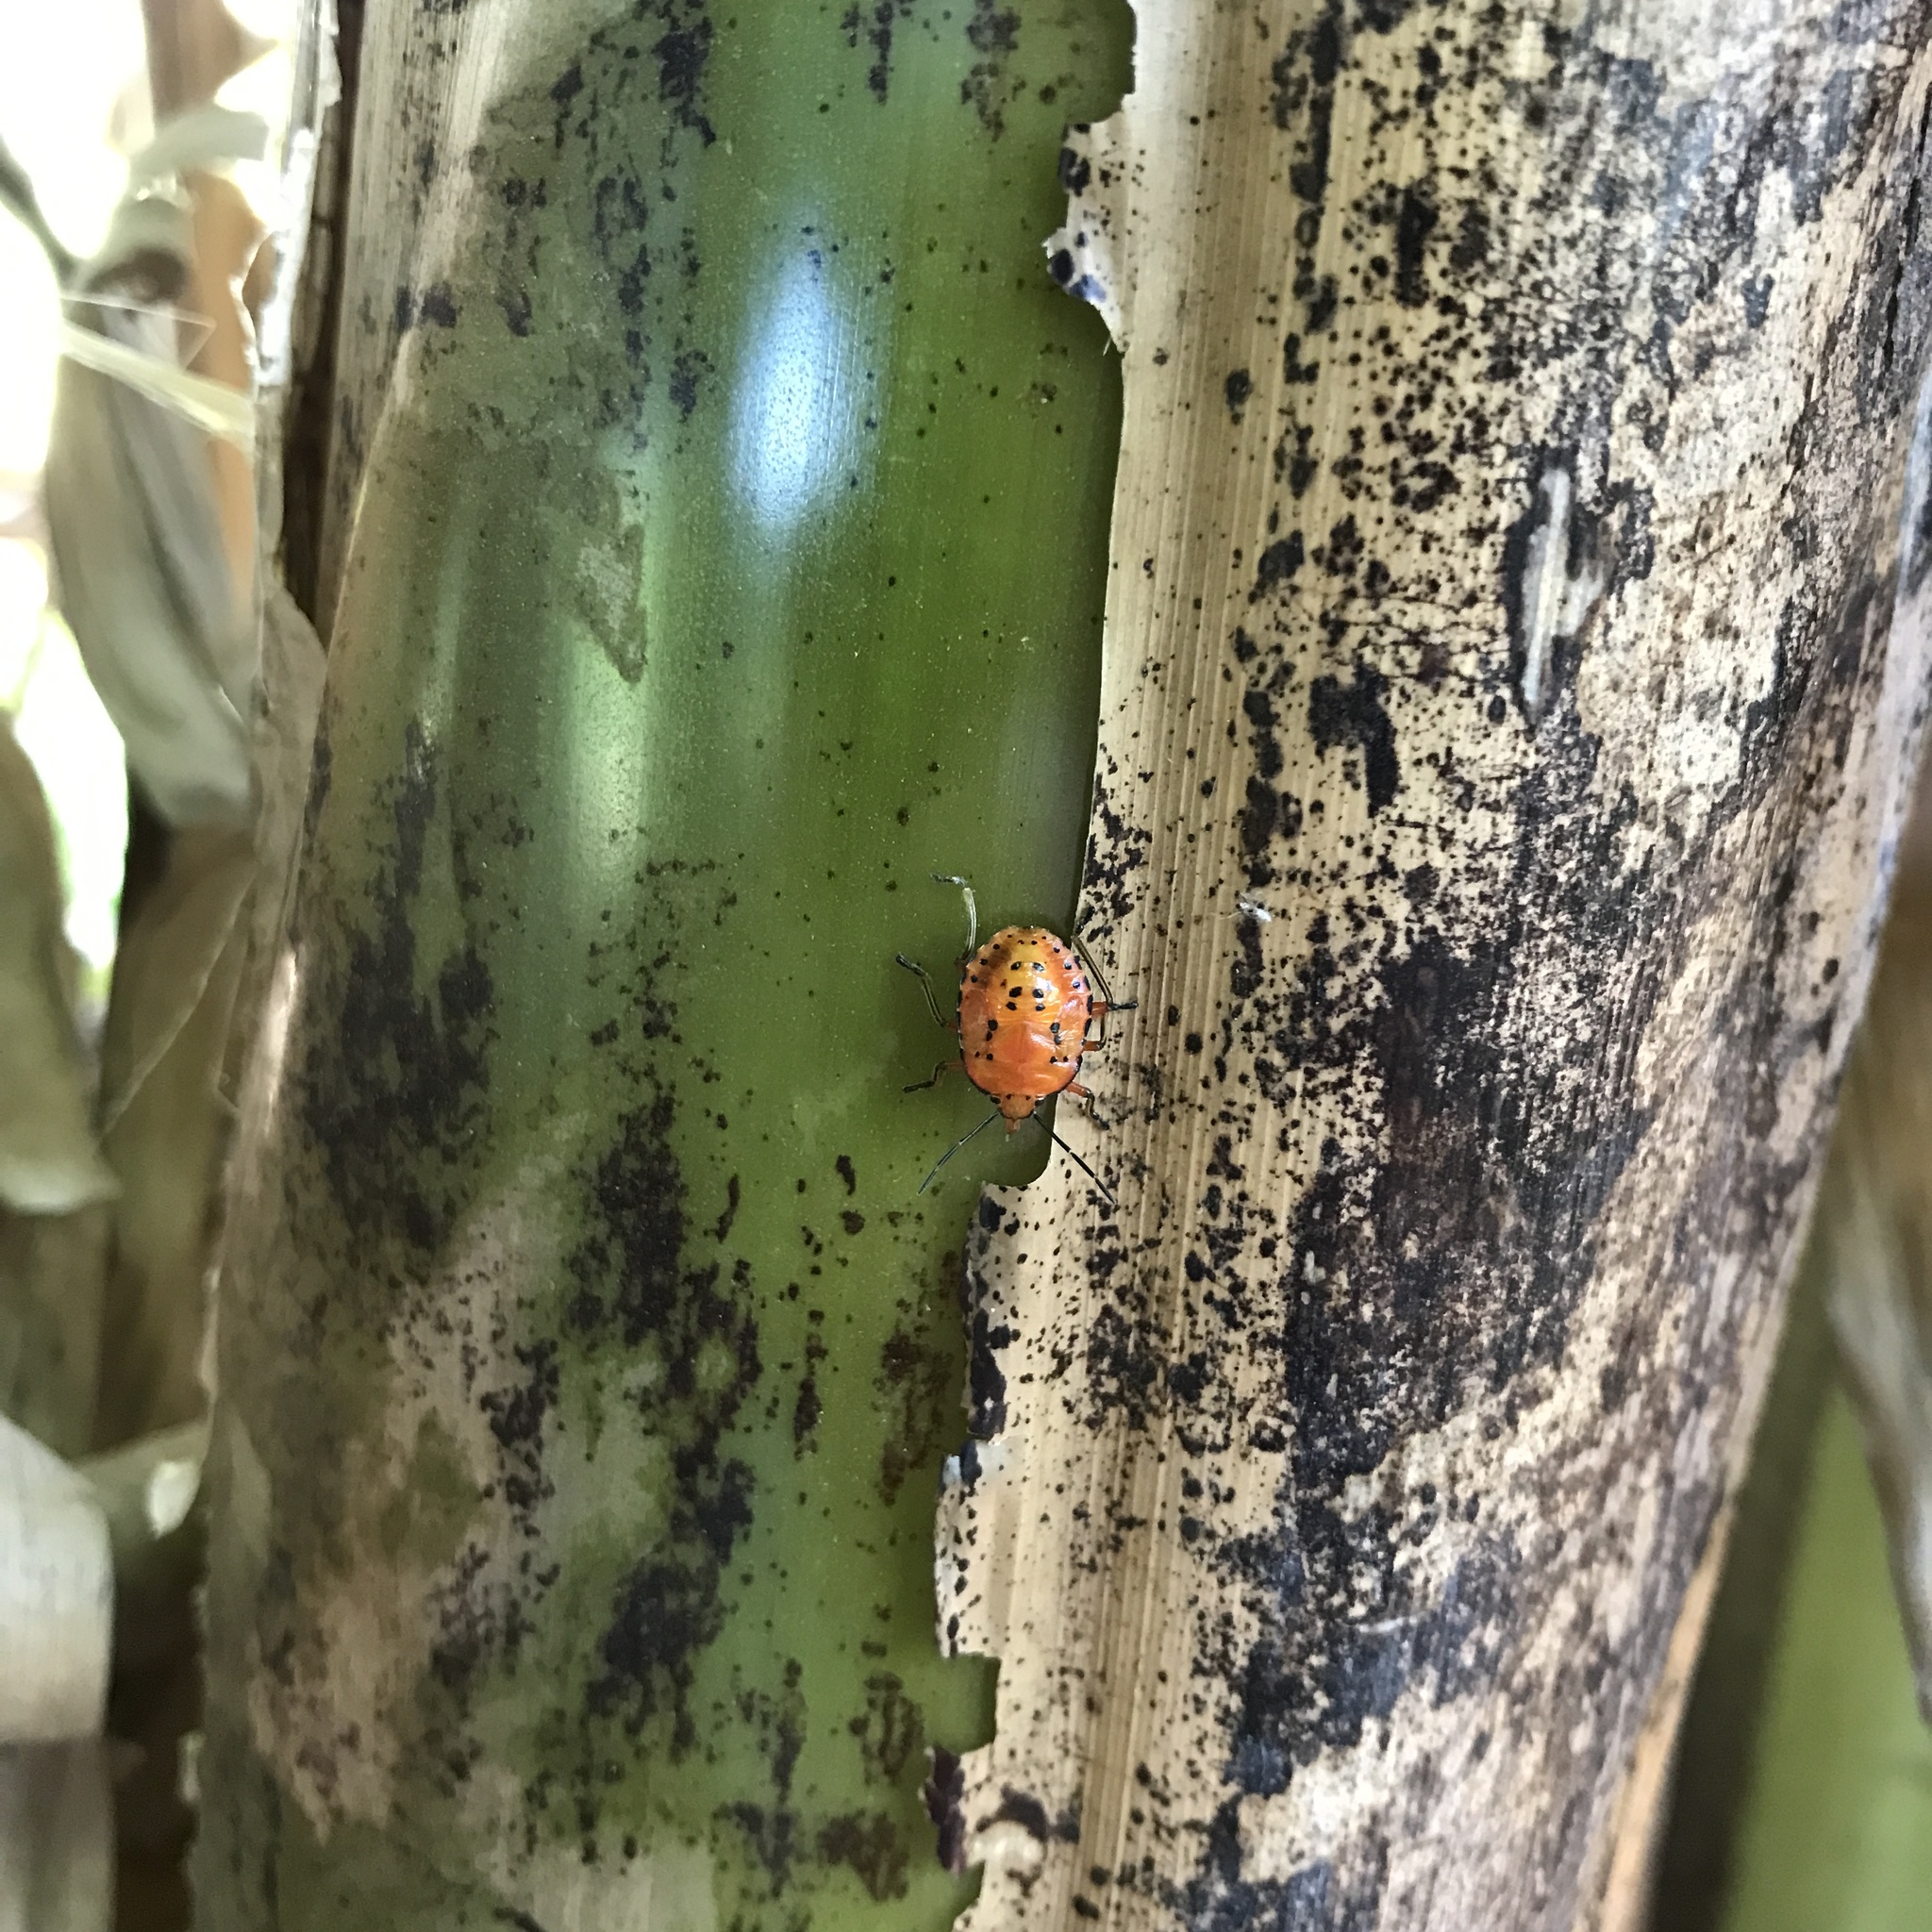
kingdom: Animalia
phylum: Arthropoda
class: Insecta
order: Hemiptera
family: Pentatomidae
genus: Brontocoris
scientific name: Brontocoris
